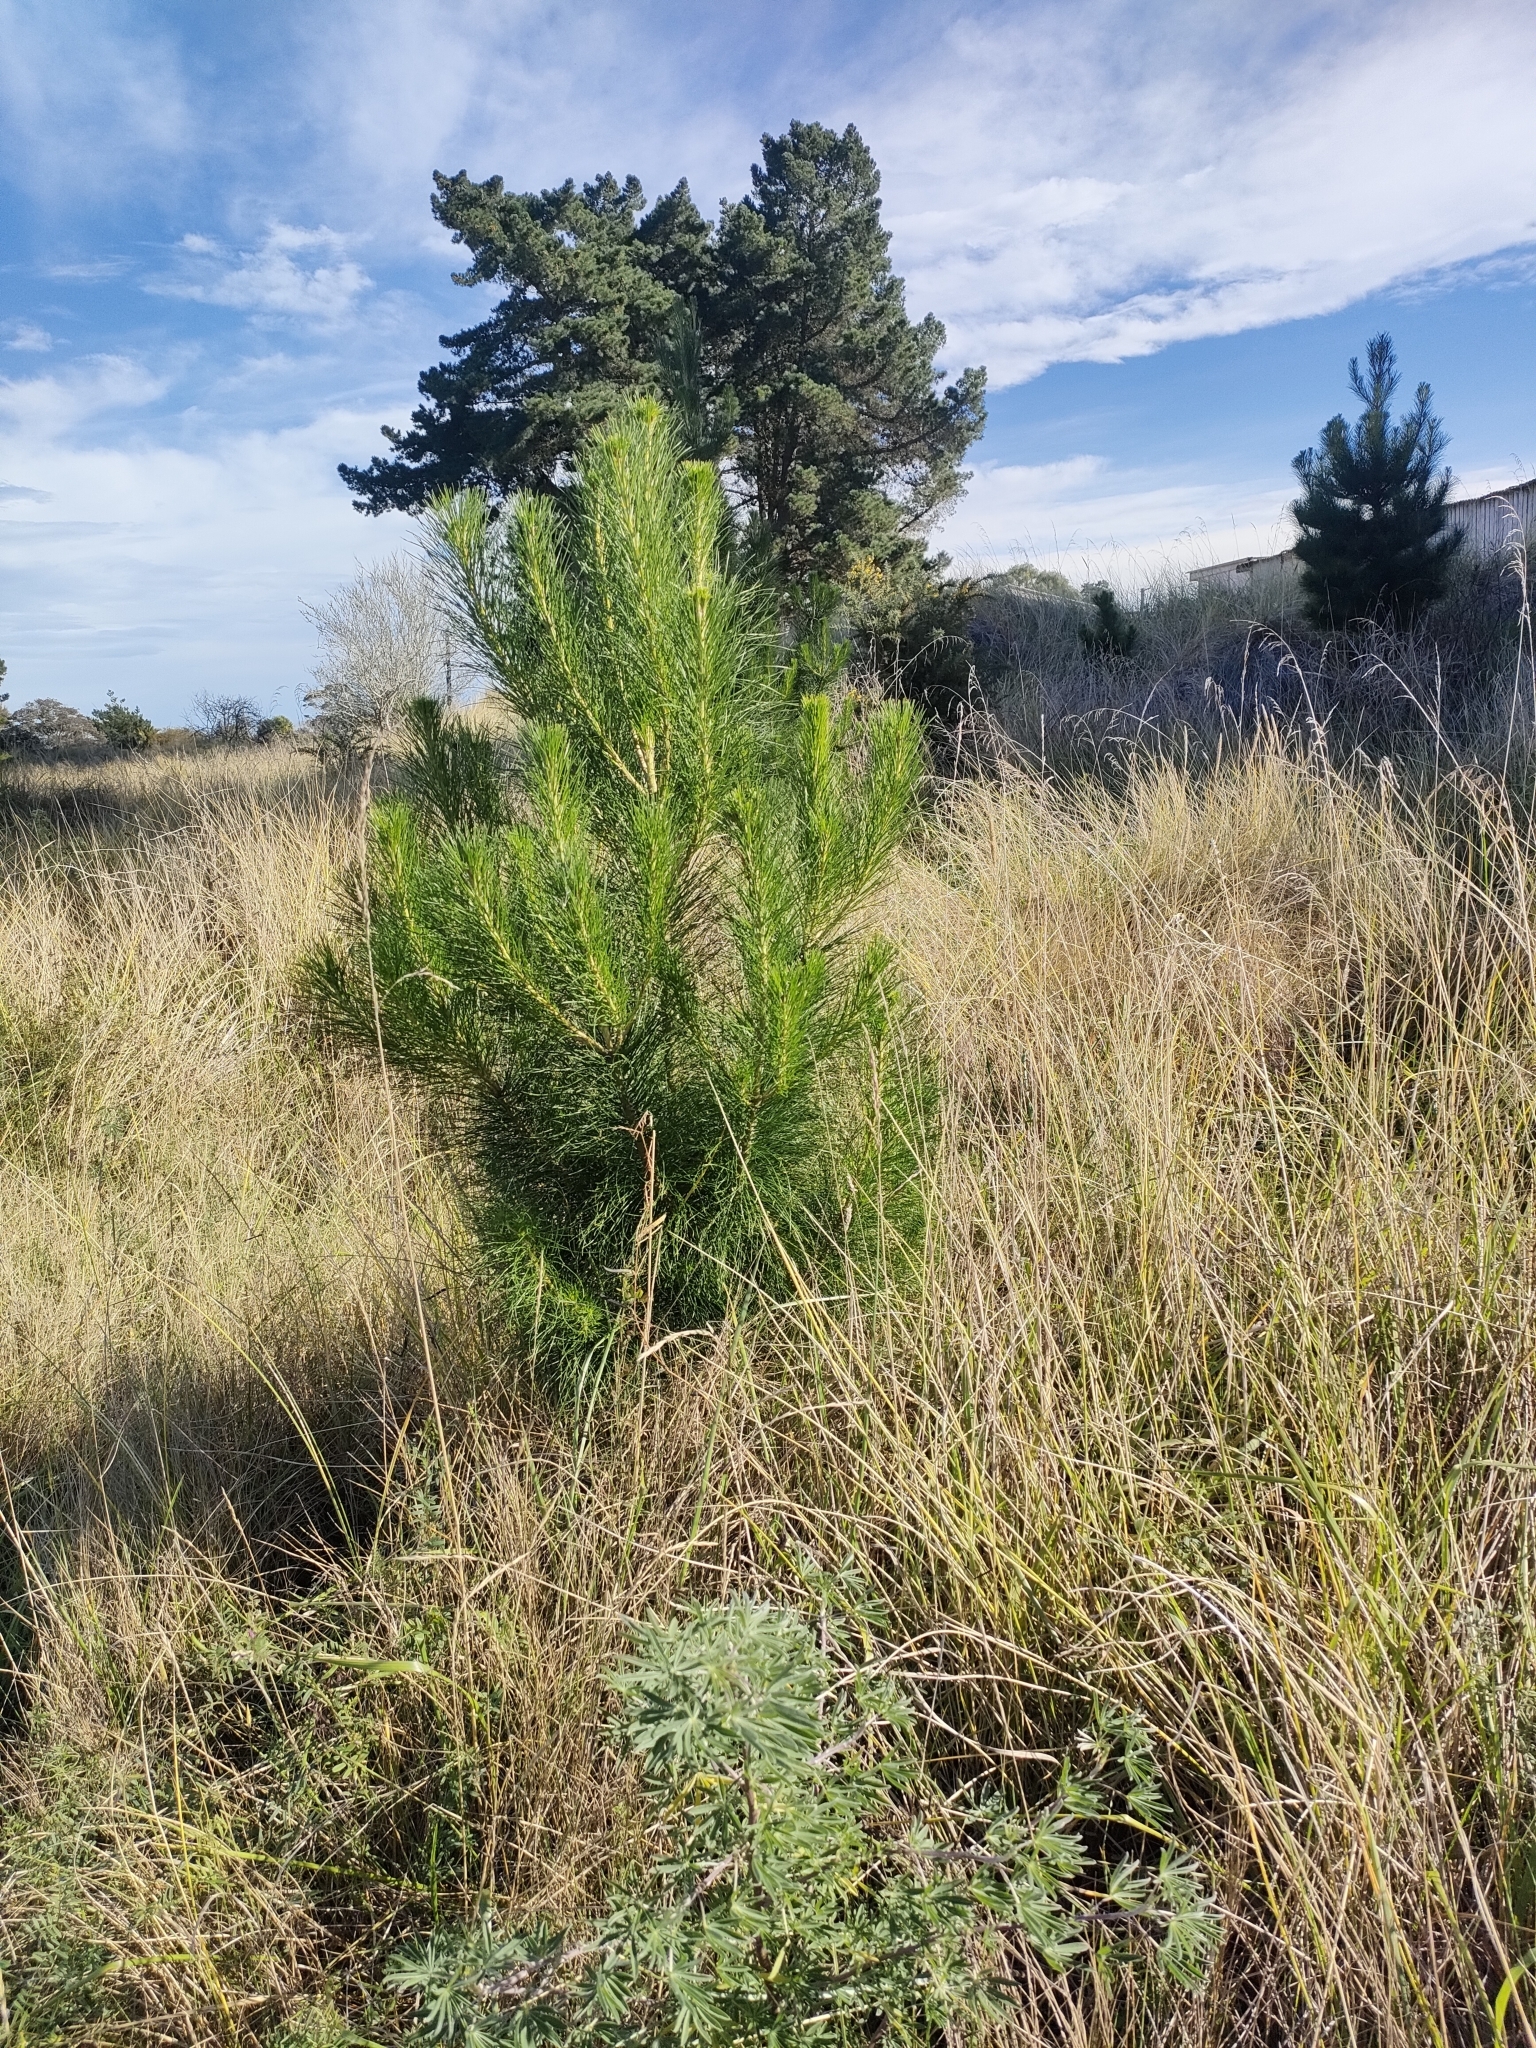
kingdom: Plantae
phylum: Tracheophyta
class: Pinopsida
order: Pinales
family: Pinaceae
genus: Pinus
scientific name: Pinus radiata
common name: Monterey pine
